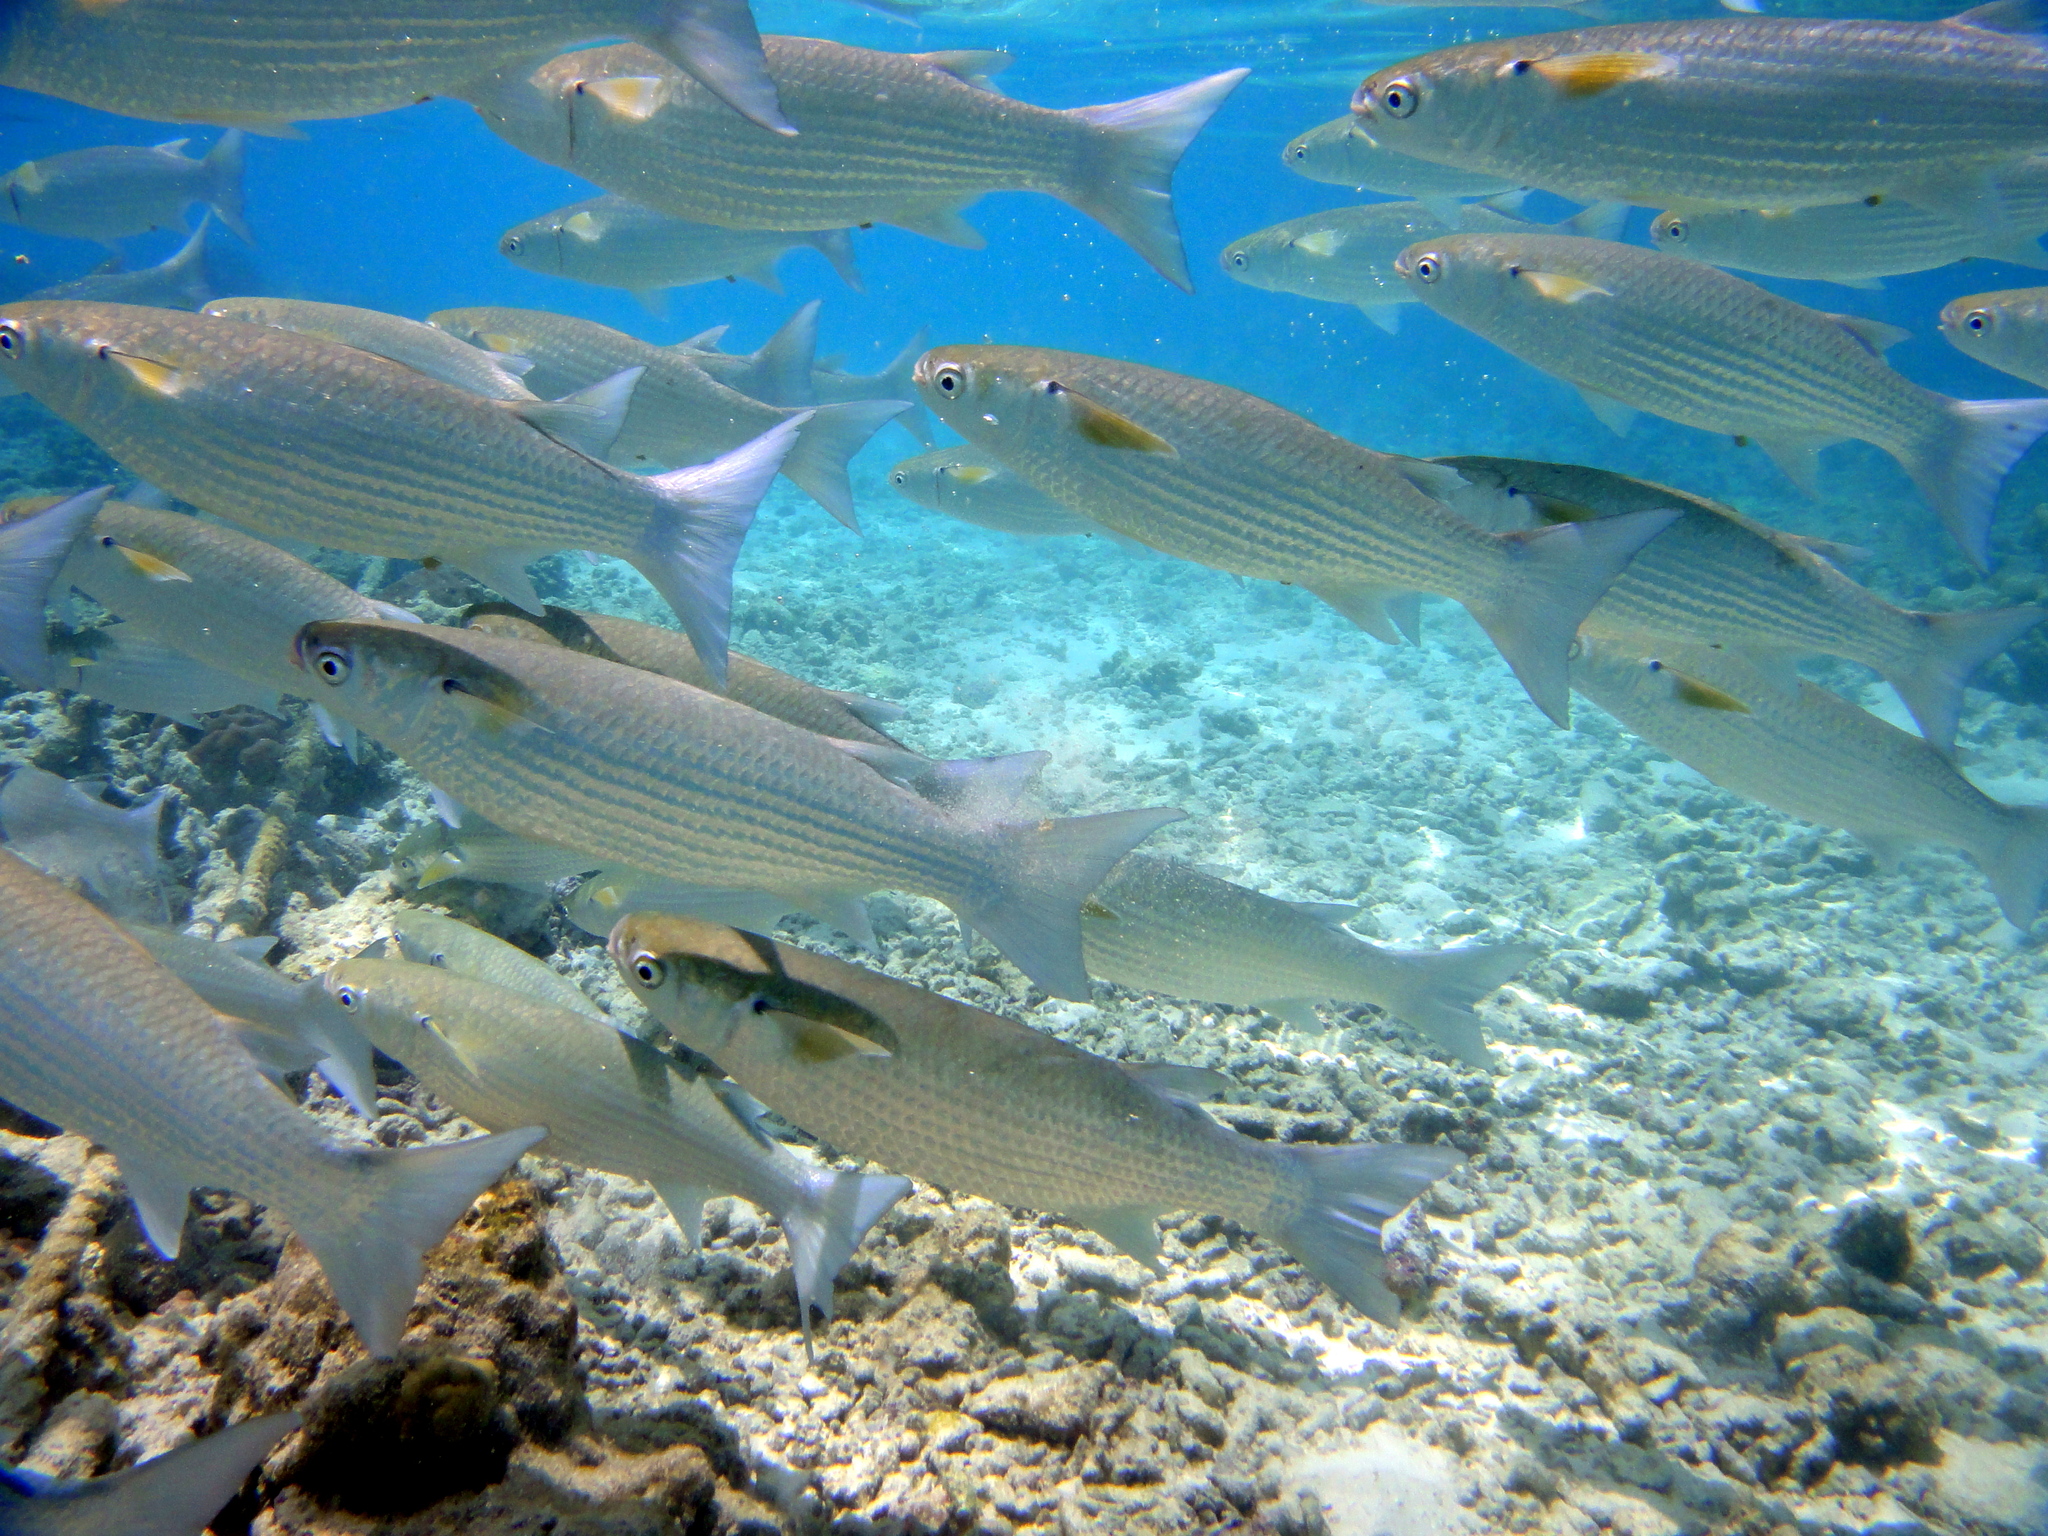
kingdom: Animalia
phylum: Chordata
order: Mugiliformes
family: Mugilidae
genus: Crenimugil
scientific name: Crenimugil crenilabis
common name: Fringelip mullet
